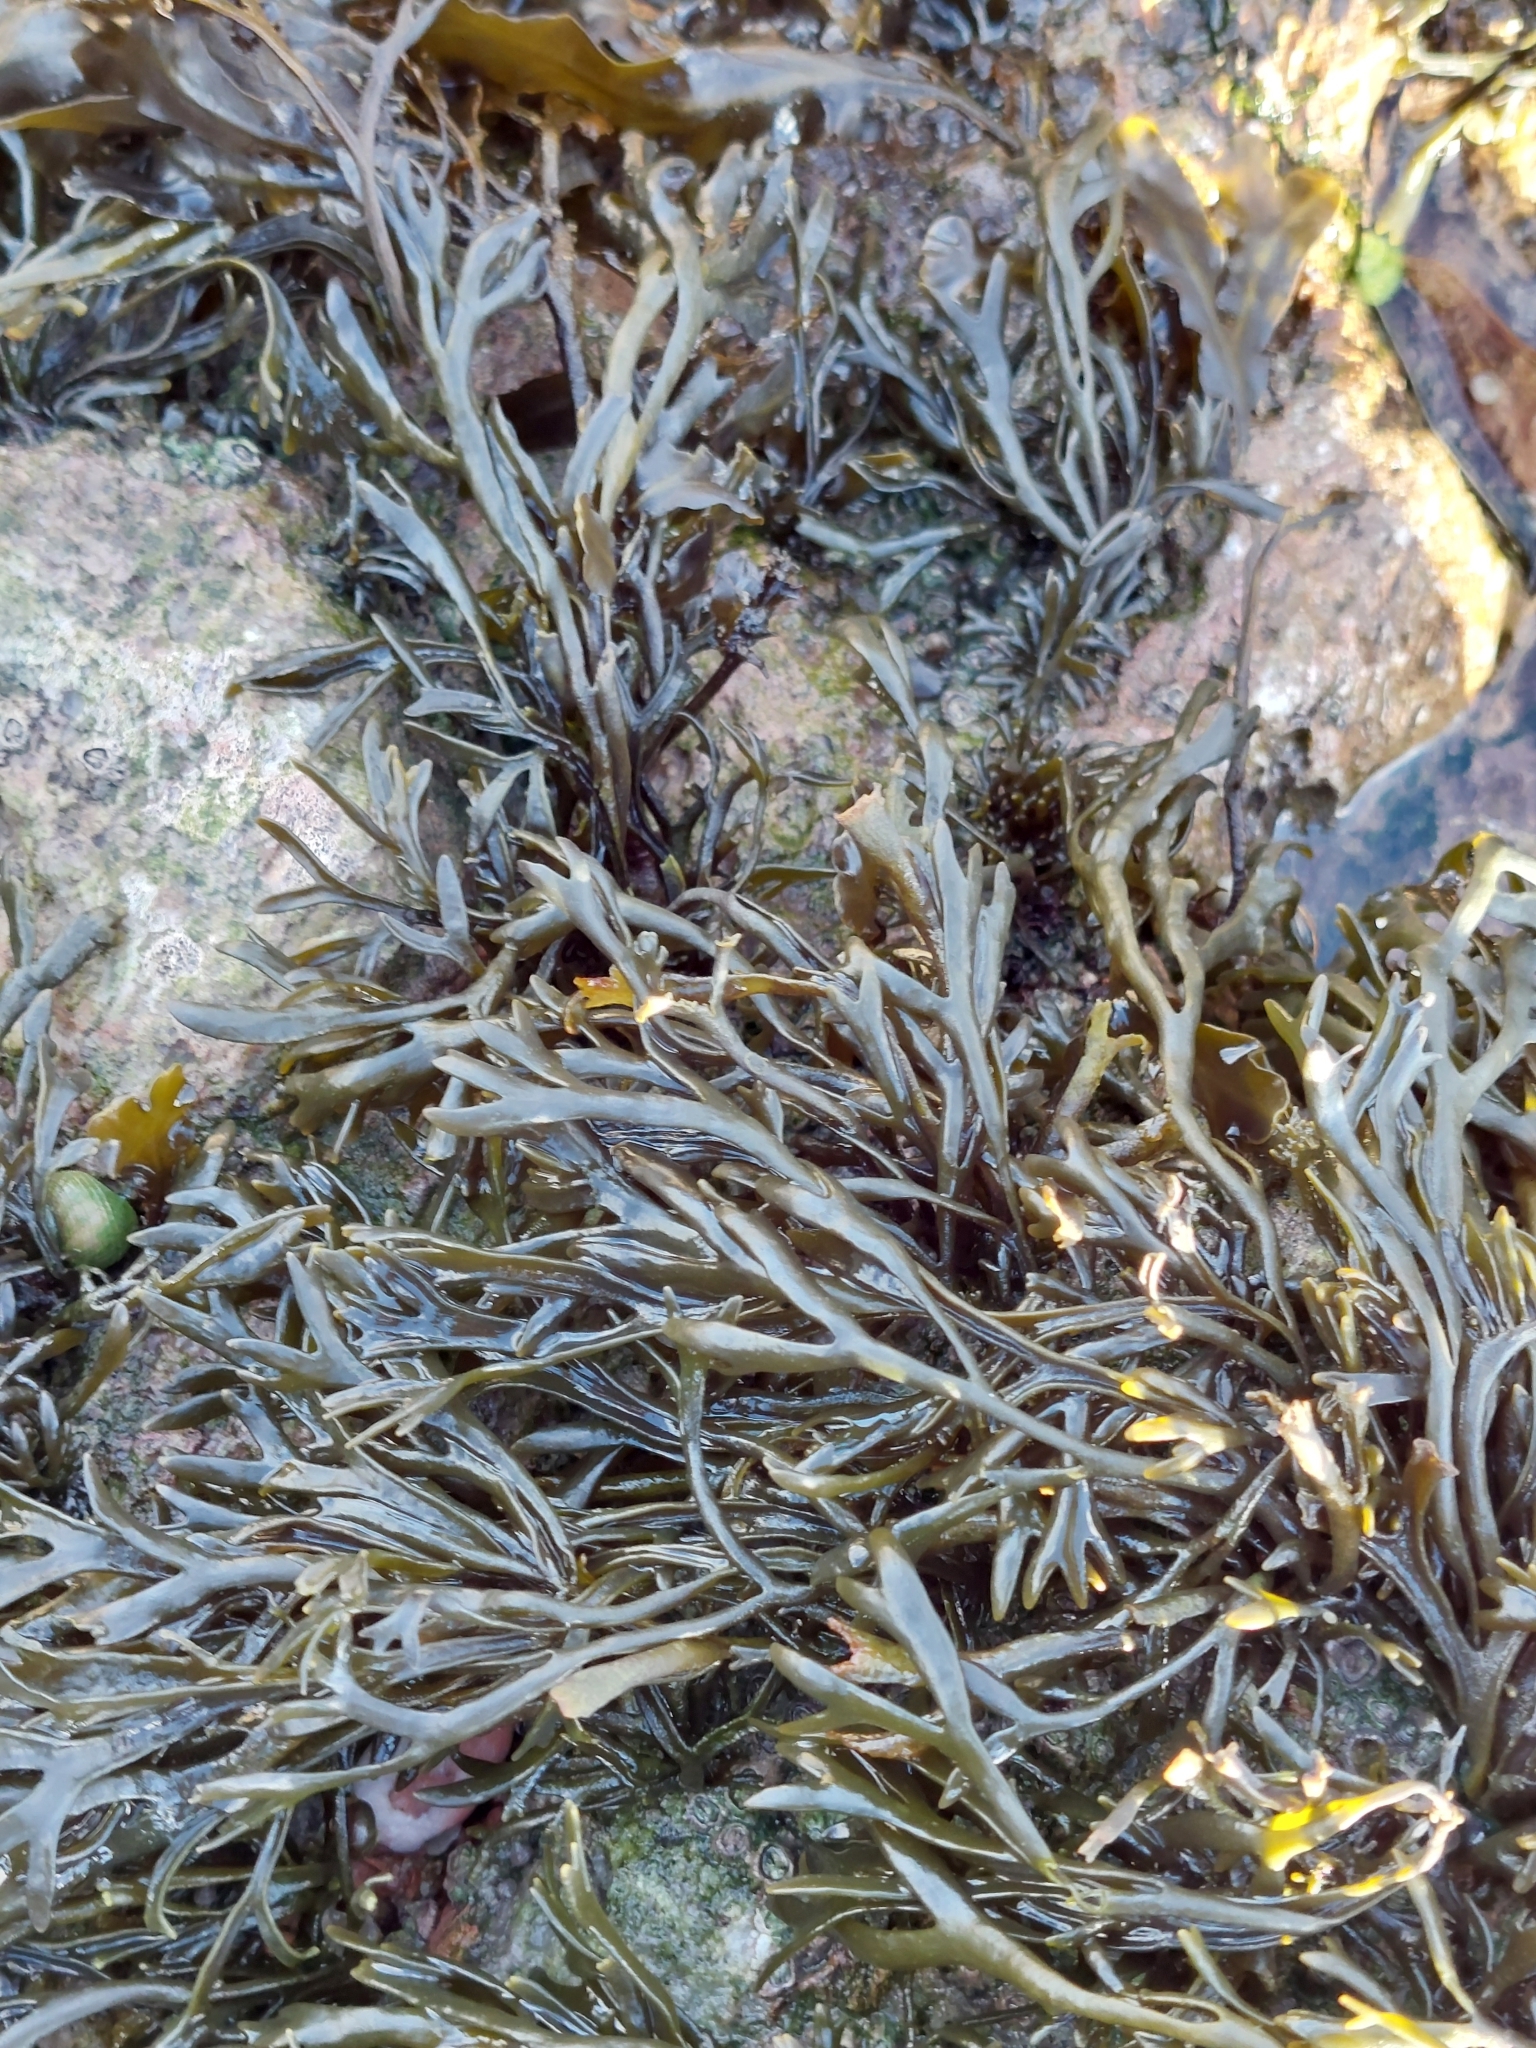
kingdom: Chromista
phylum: Ochrophyta
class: Phaeophyceae
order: Fucales
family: Fucaceae
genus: Pelvetia
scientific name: Pelvetia canaliculata
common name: Channelled wrack
